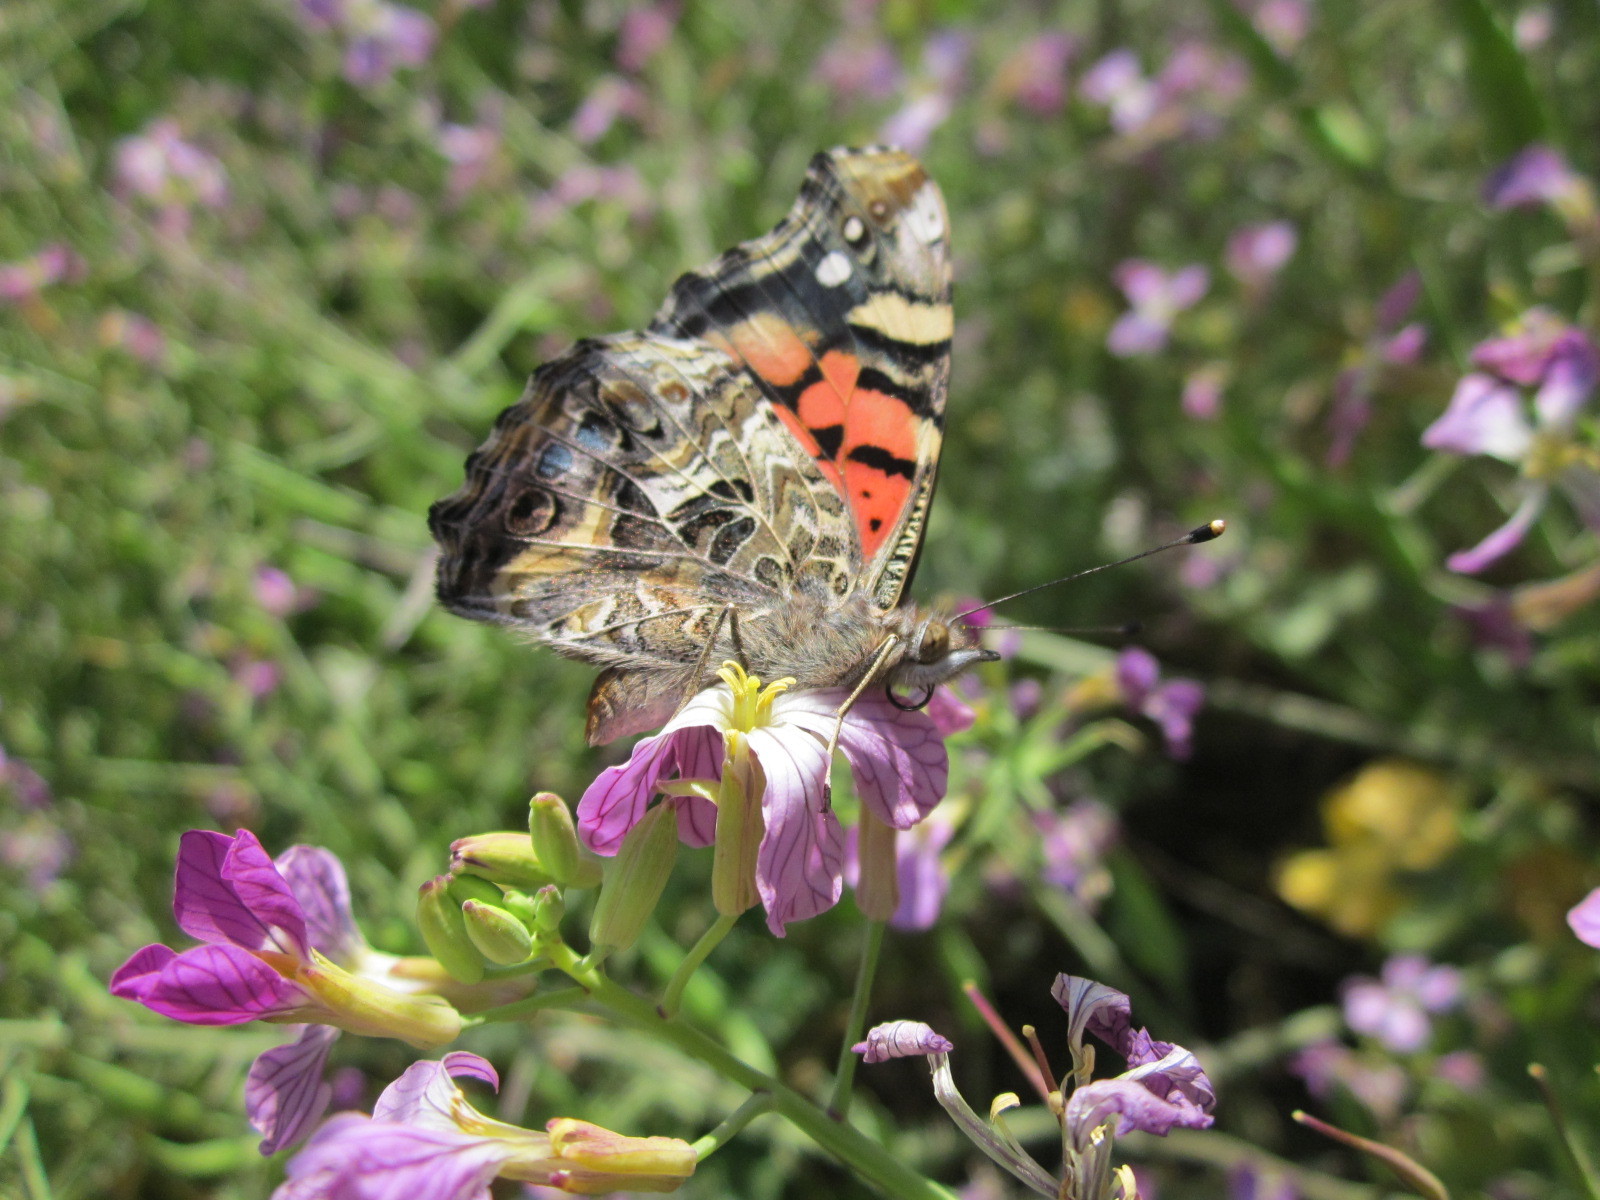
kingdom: Animalia
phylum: Arthropoda
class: Insecta
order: Lepidoptera
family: Nymphalidae
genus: Vanessa
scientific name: Vanessa carye
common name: Subtropical lady
